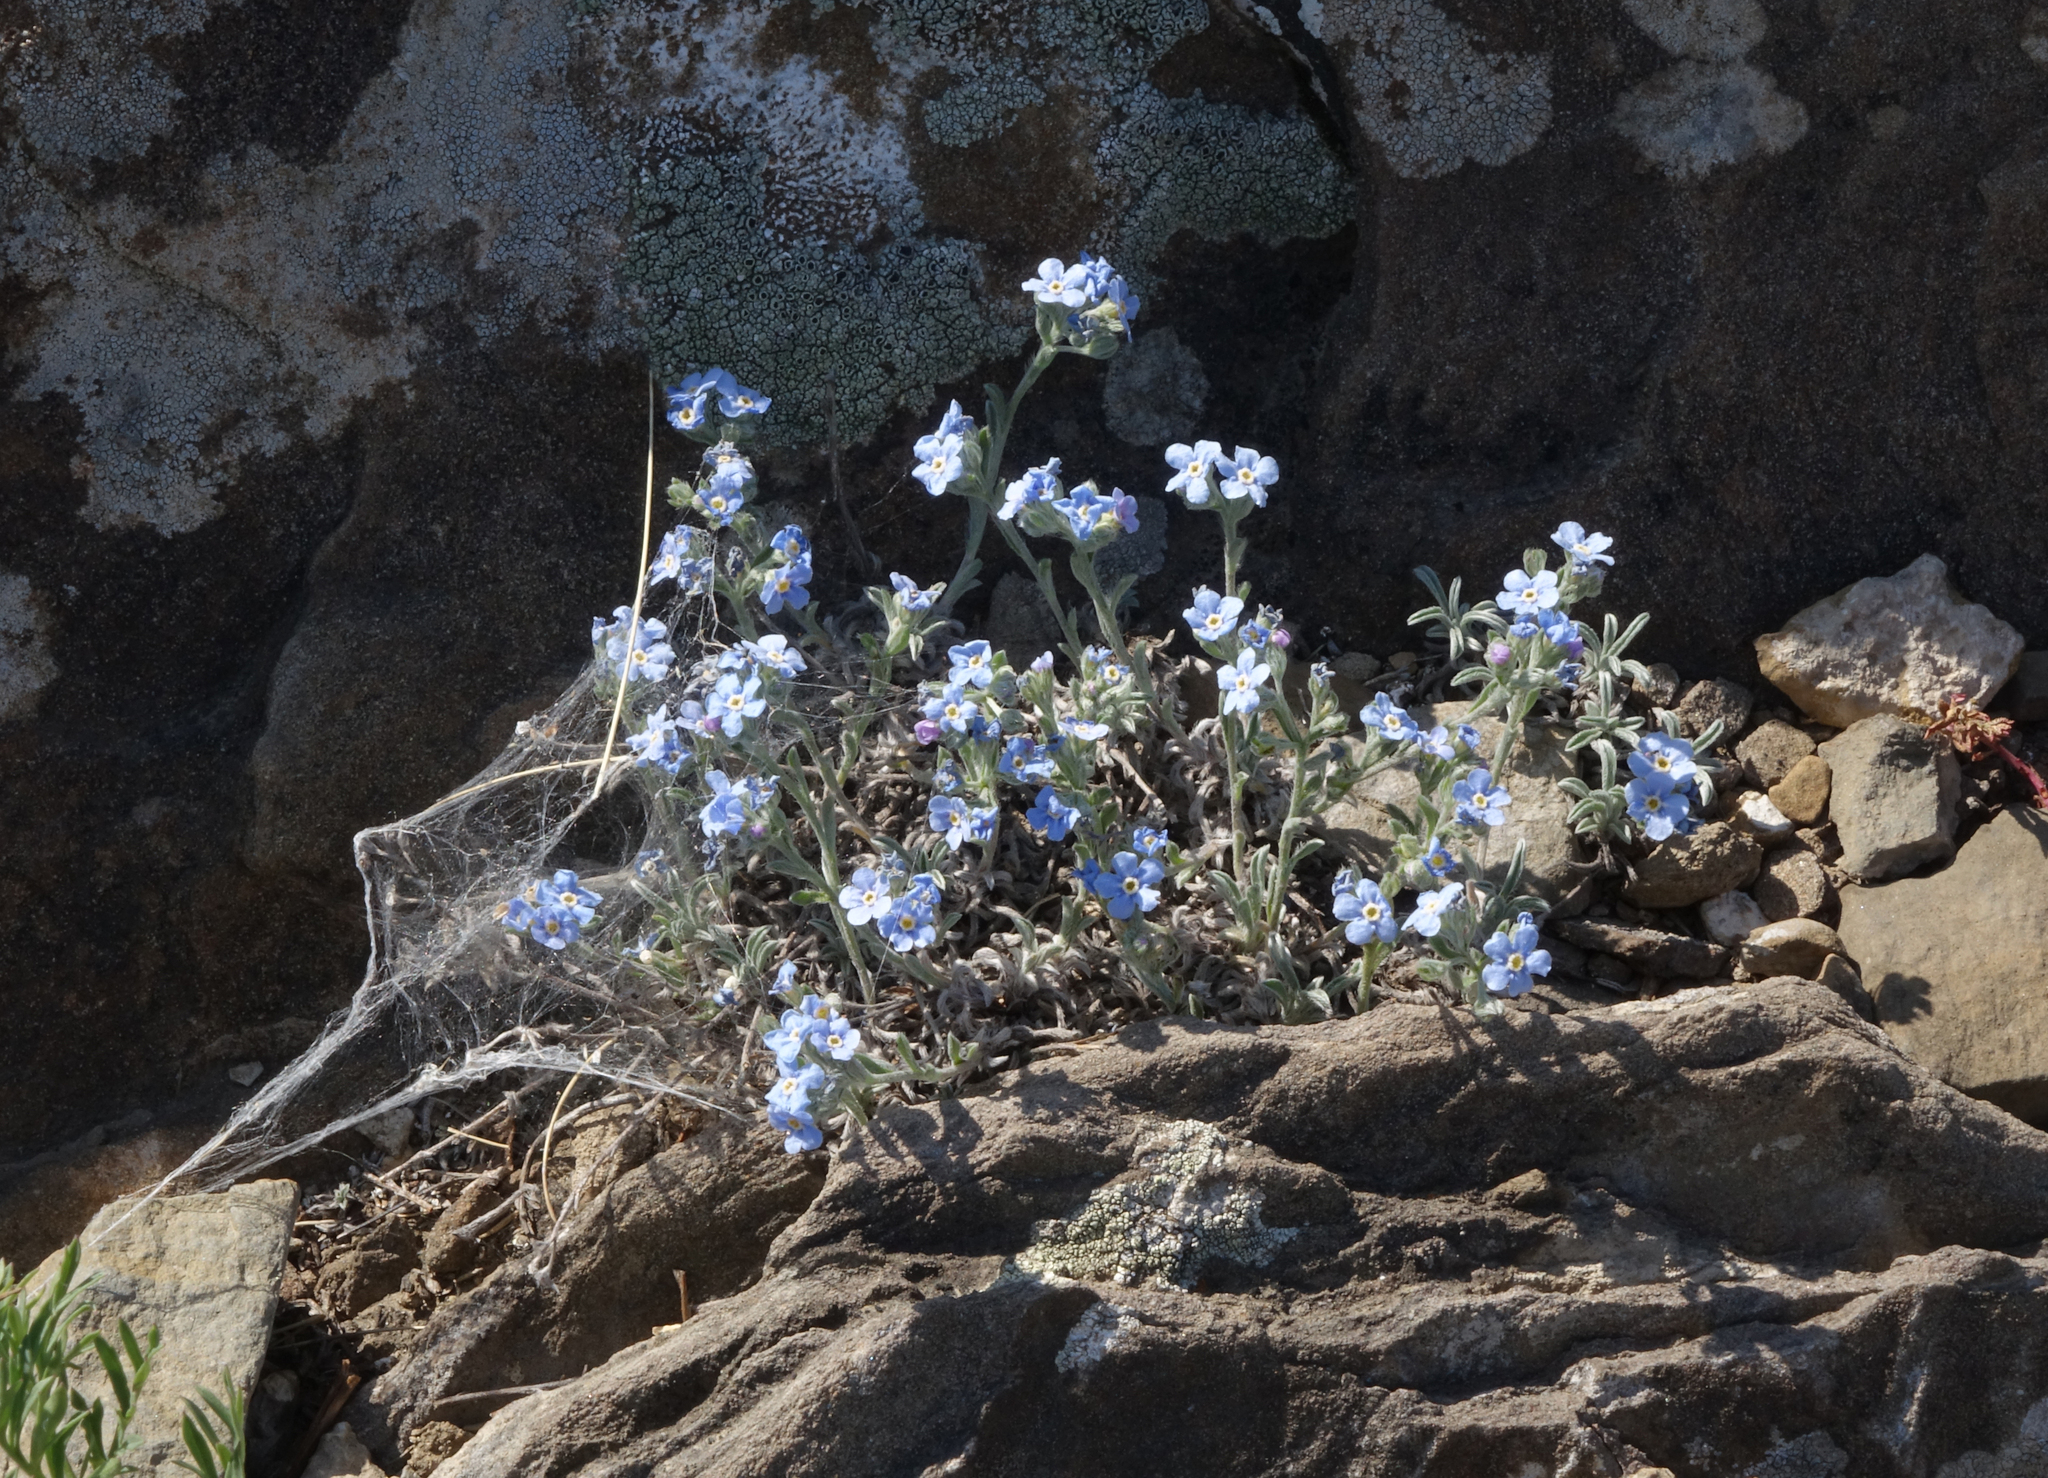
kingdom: Plantae
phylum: Tracheophyta
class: Magnoliopsida
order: Boraginales
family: Boraginaceae
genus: Eritrichium
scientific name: Eritrichium rupestre
